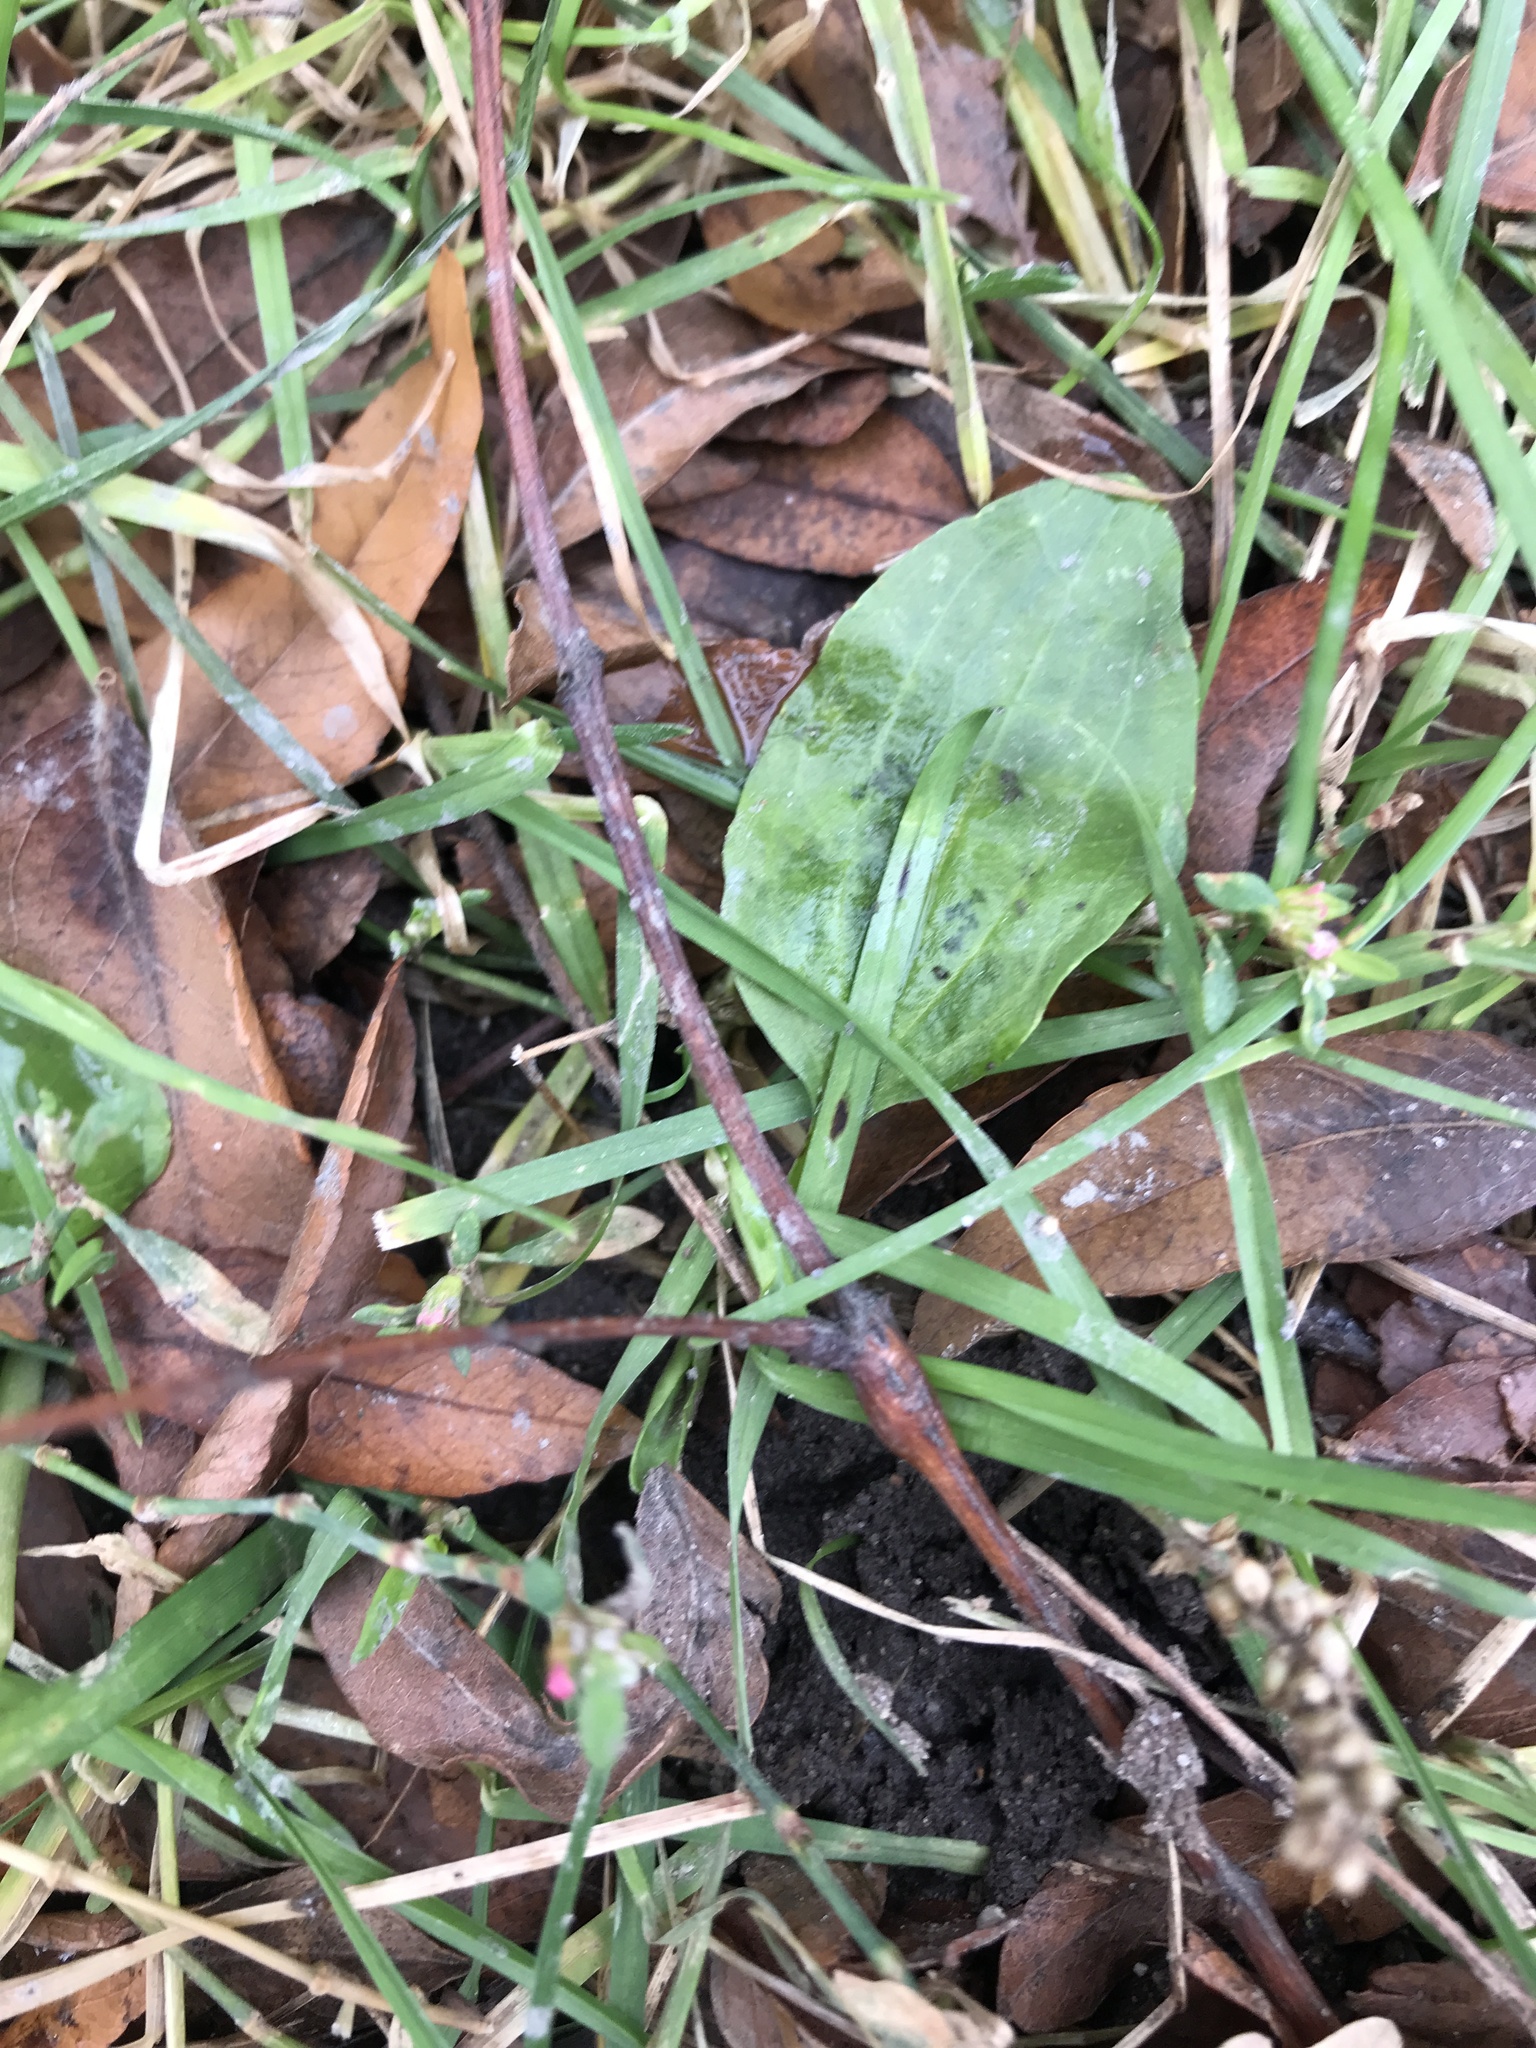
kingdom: Plantae
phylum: Tracheophyta
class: Magnoliopsida
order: Lamiales
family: Plantaginaceae
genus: Plantago
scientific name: Plantago major
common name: Common plantain
